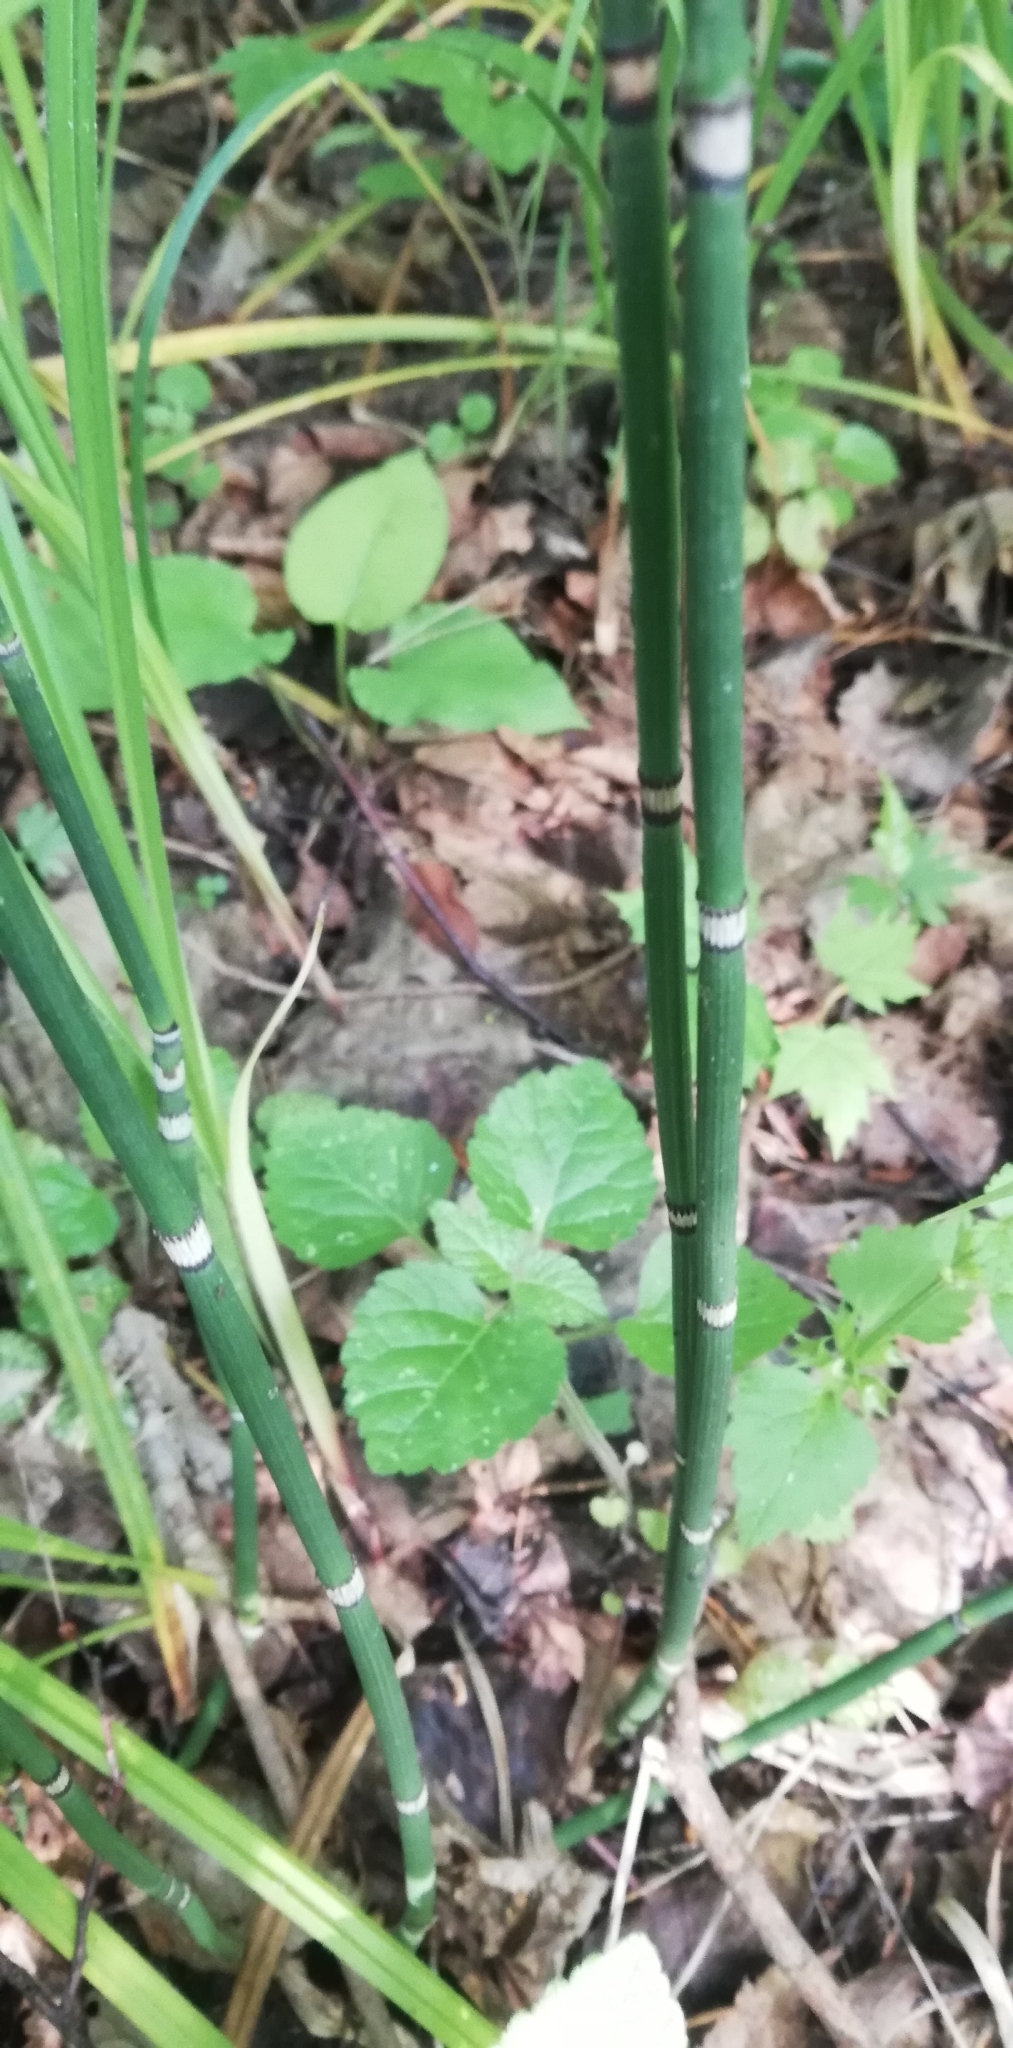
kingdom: Plantae
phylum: Tracheophyta
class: Polypodiopsida
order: Equisetales
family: Equisetaceae
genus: Equisetum
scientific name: Equisetum hyemale
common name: Rough horsetail
